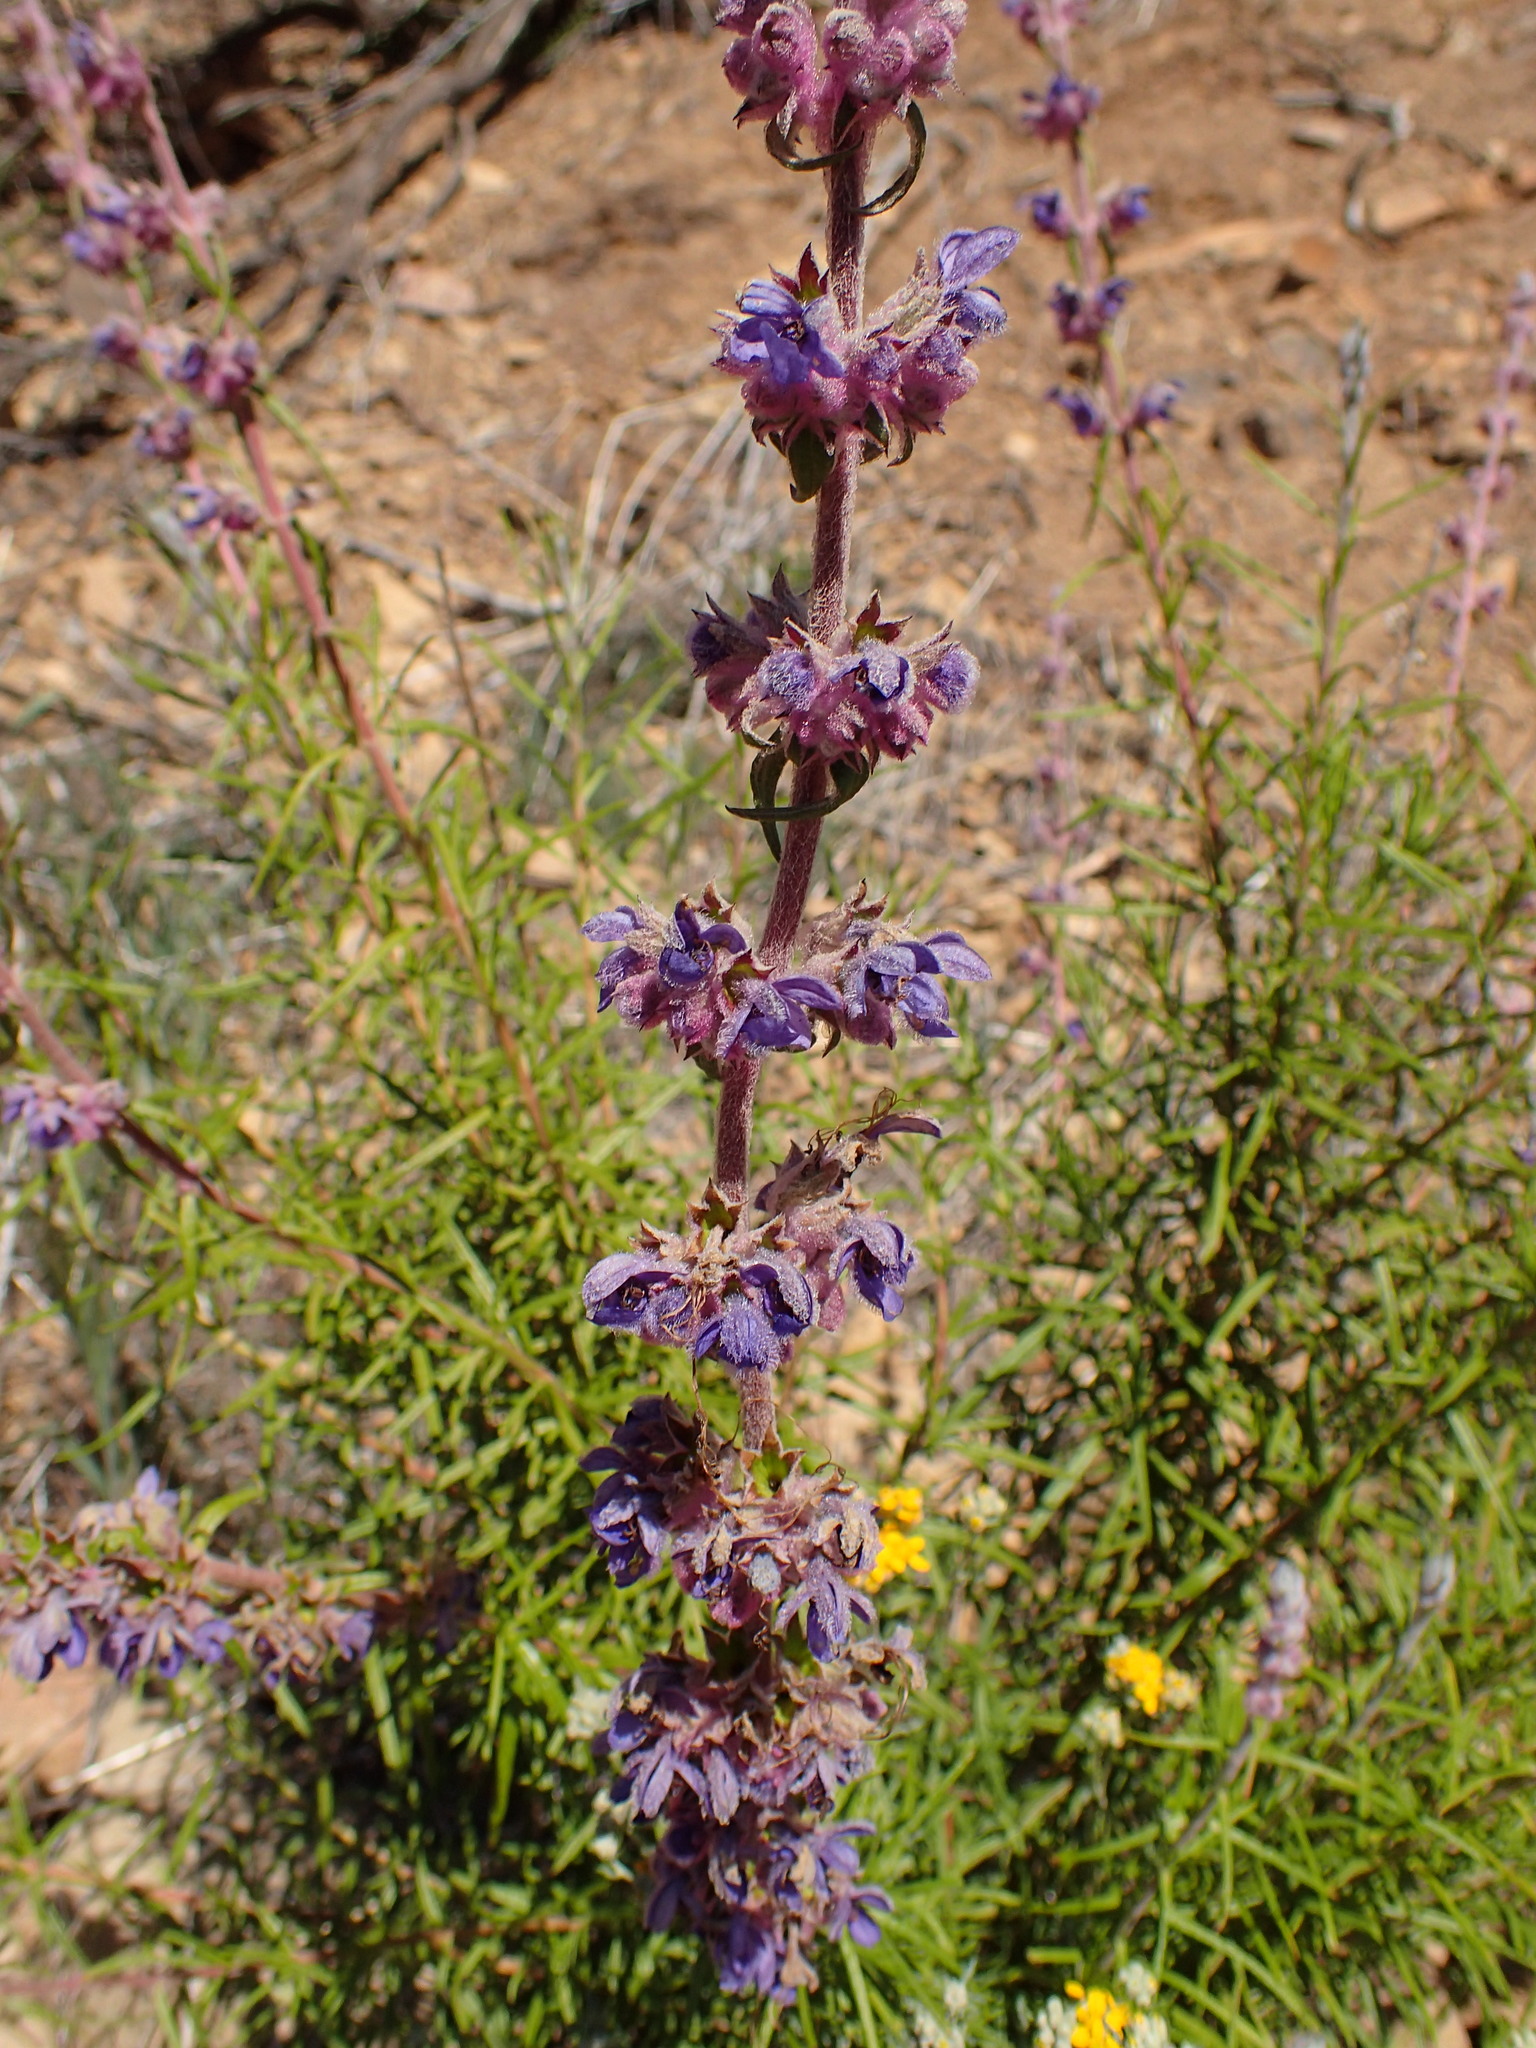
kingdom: Plantae
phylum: Tracheophyta
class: Magnoliopsida
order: Lamiales
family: Lamiaceae
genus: Trichostema
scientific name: Trichostema lanatum
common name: Woolly bluecurls
